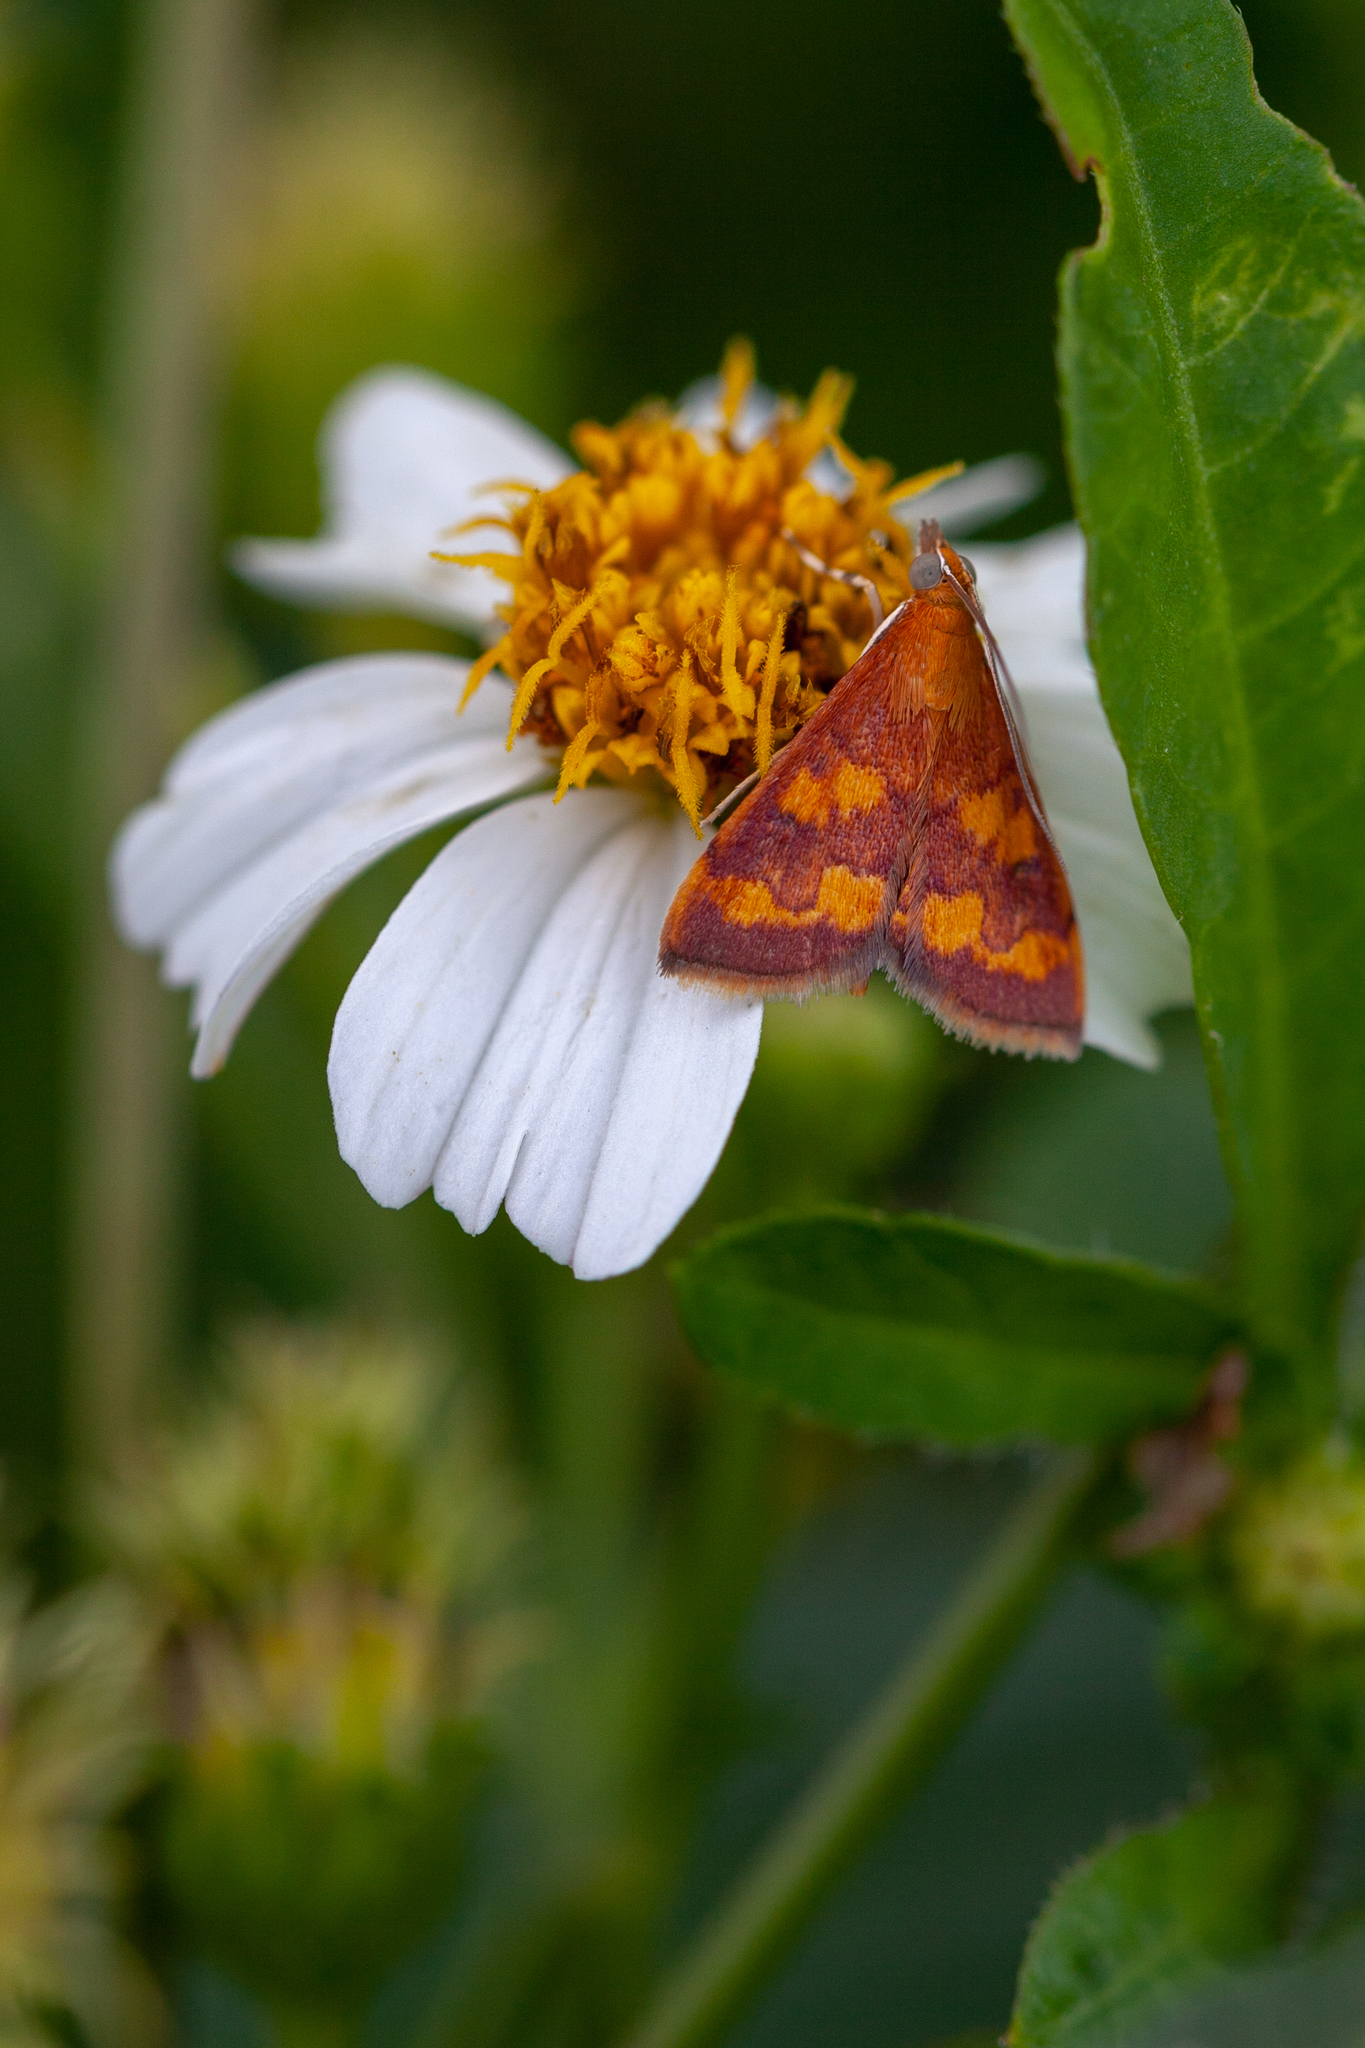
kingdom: Animalia
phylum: Arthropoda
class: Insecta
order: Lepidoptera
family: Crambidae
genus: Pyrausta
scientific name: Pyrausta phoenicealis
